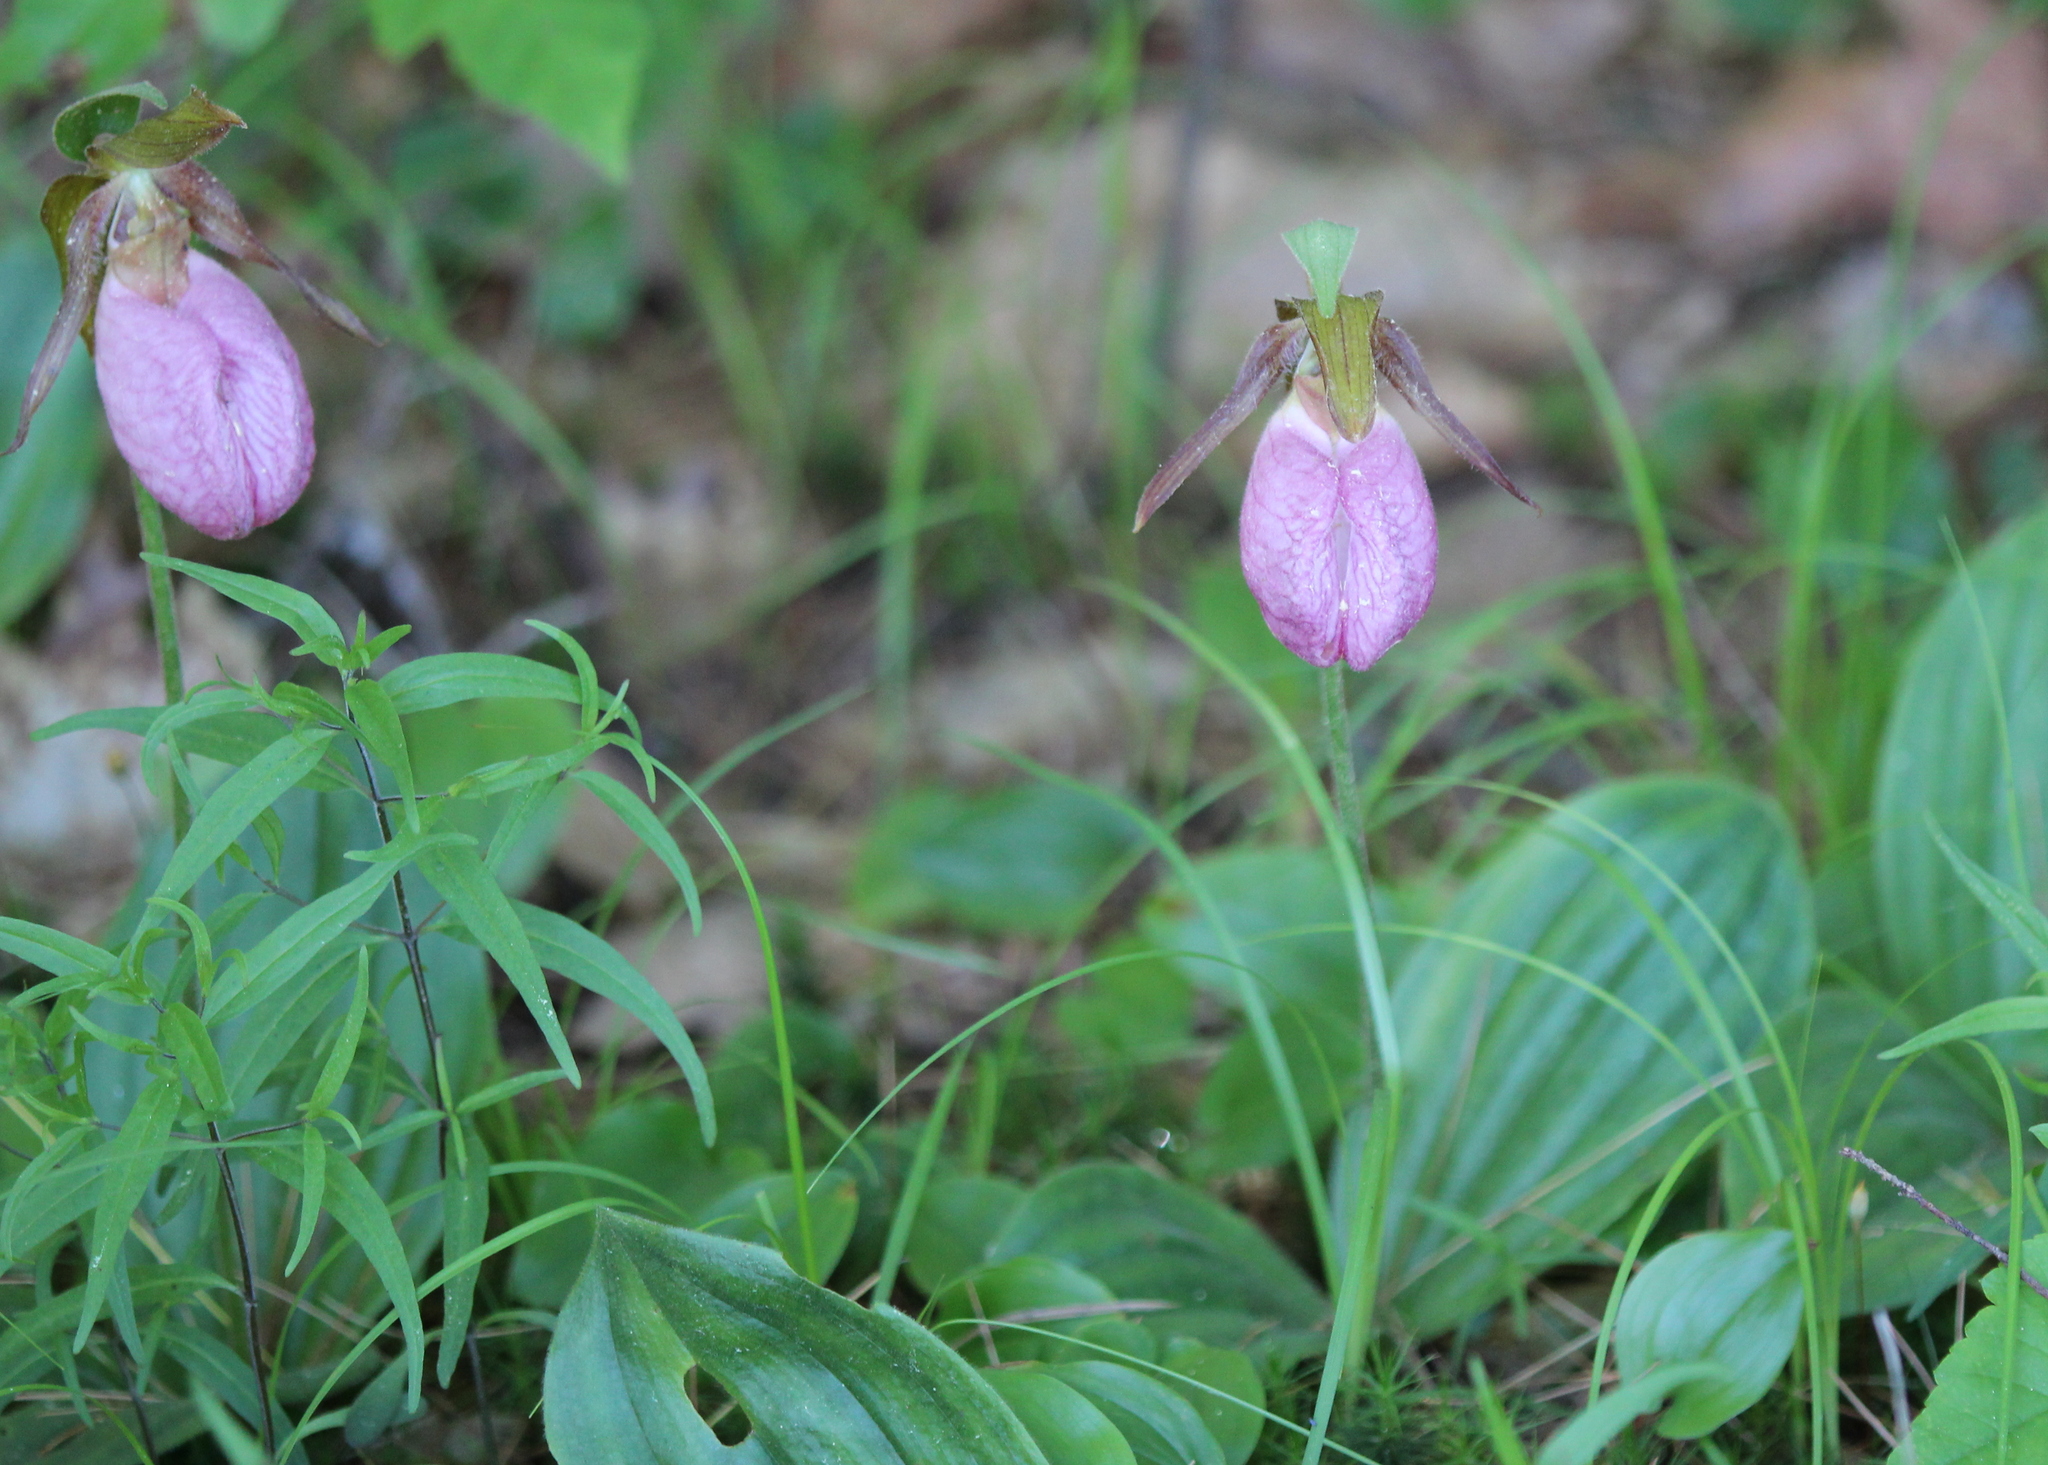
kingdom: Plantae
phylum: Tracheophyta
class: Liliopsida
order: Asparagales
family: Orchidaceae
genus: Cypripedium
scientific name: Cypripedium acaule
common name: Pink lady's-slipper
